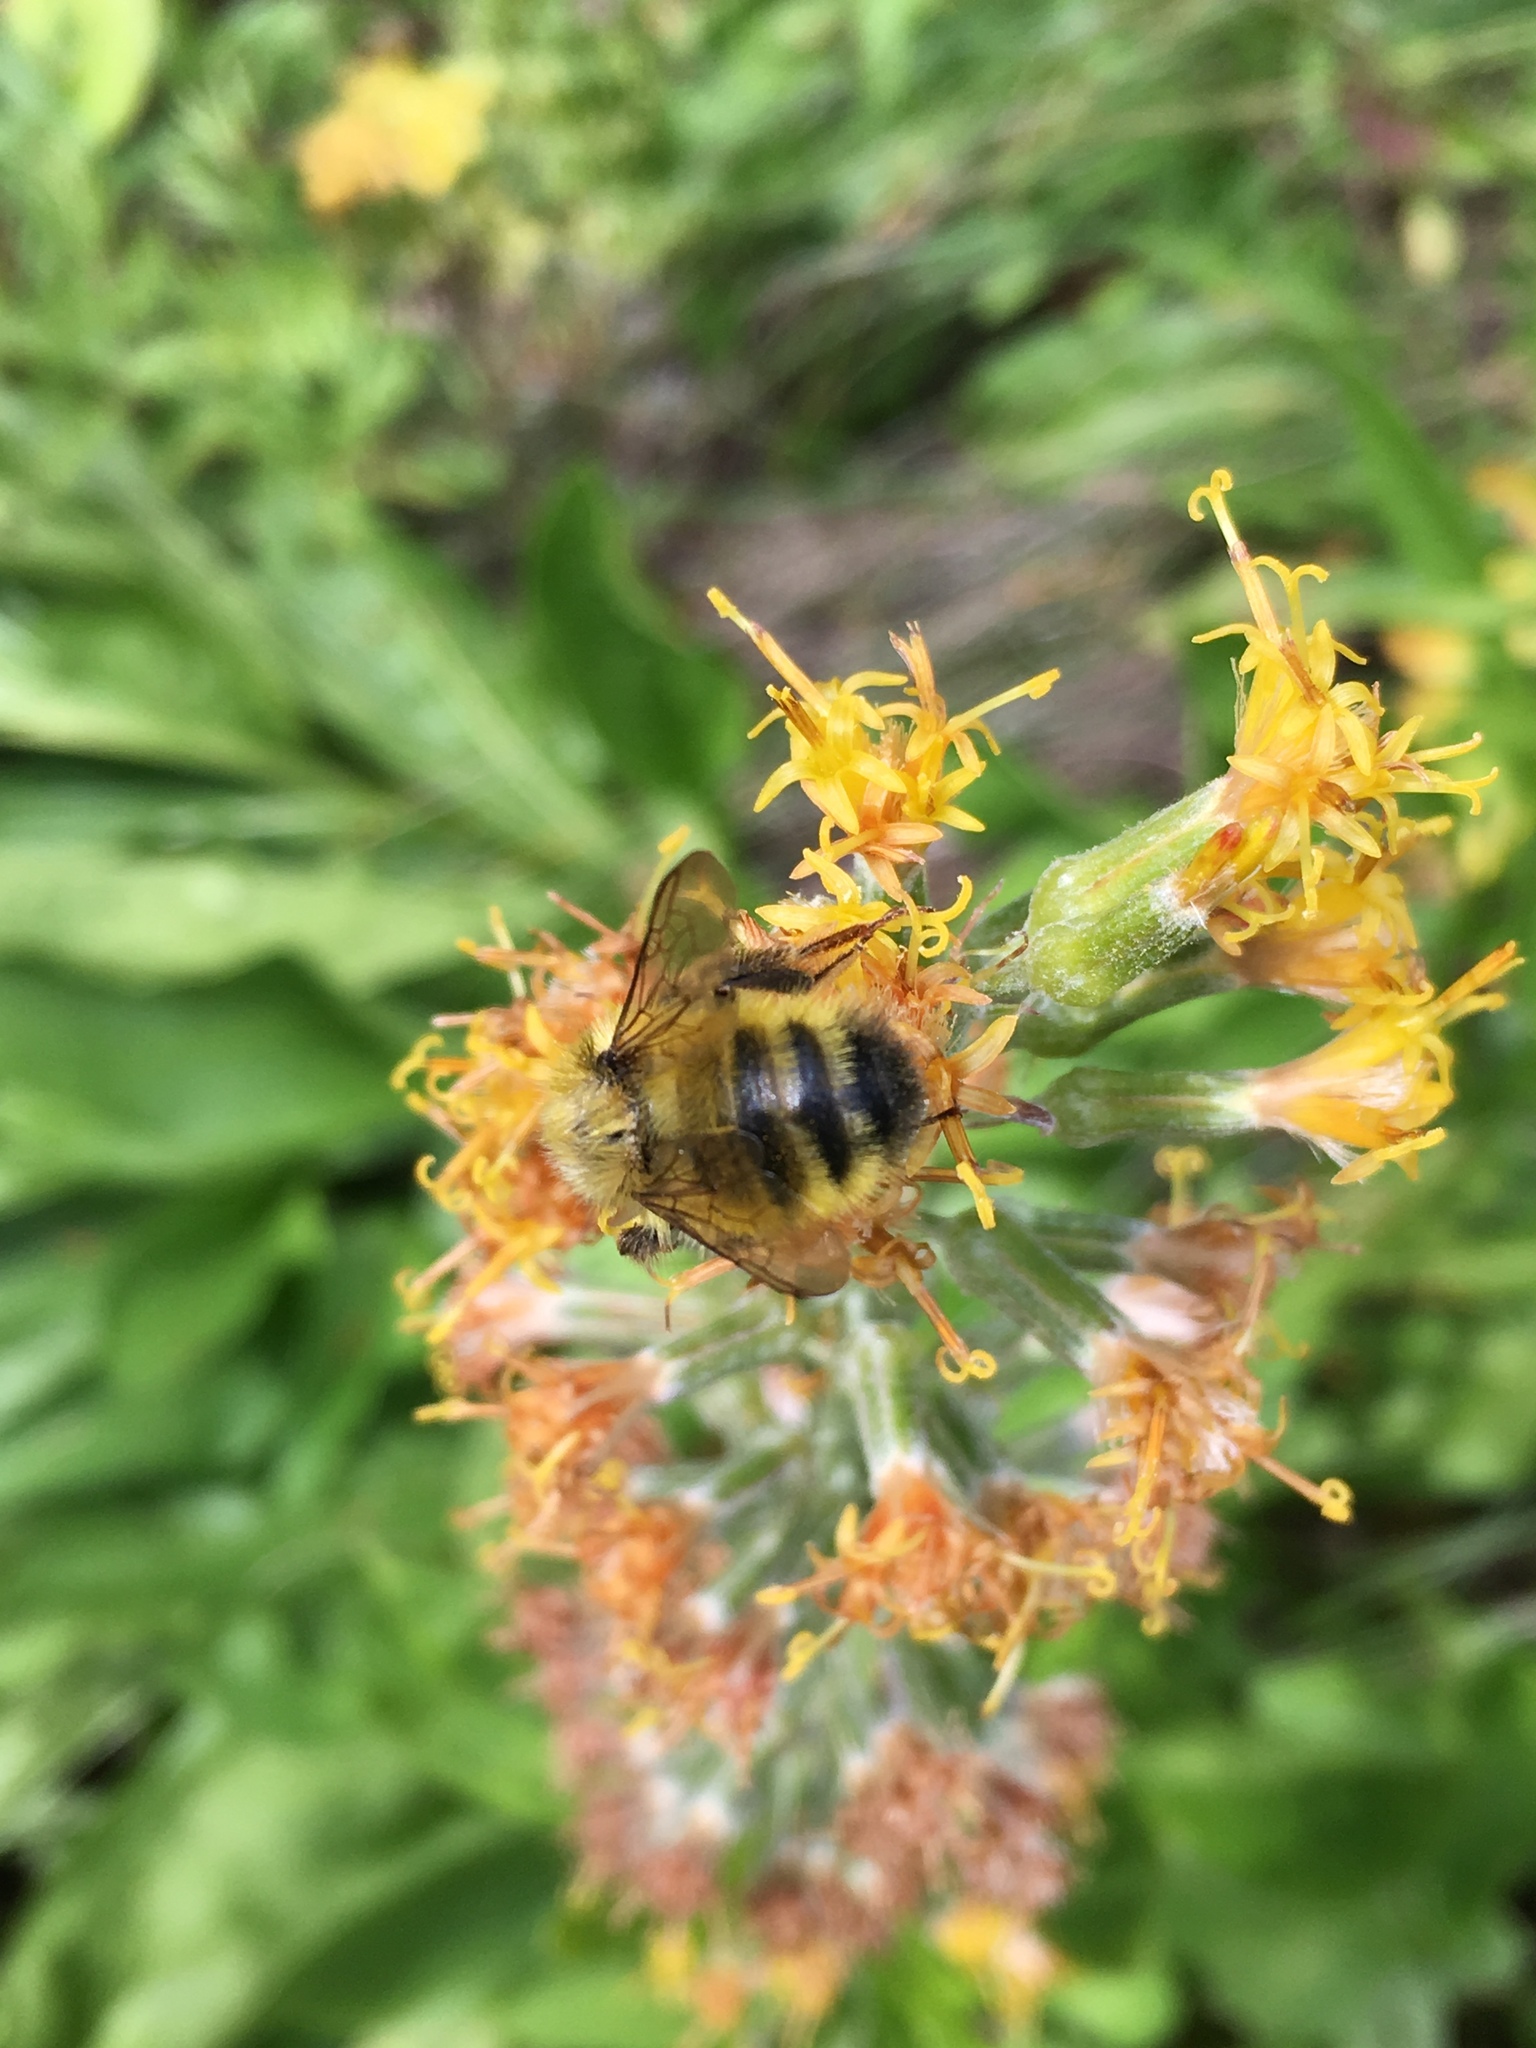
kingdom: Animalia
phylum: Arthropoda
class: Insecta
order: Hymenoptera
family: Apidae
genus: Bombus
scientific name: Bombus flavifrons
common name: Yellow head bumble bee
